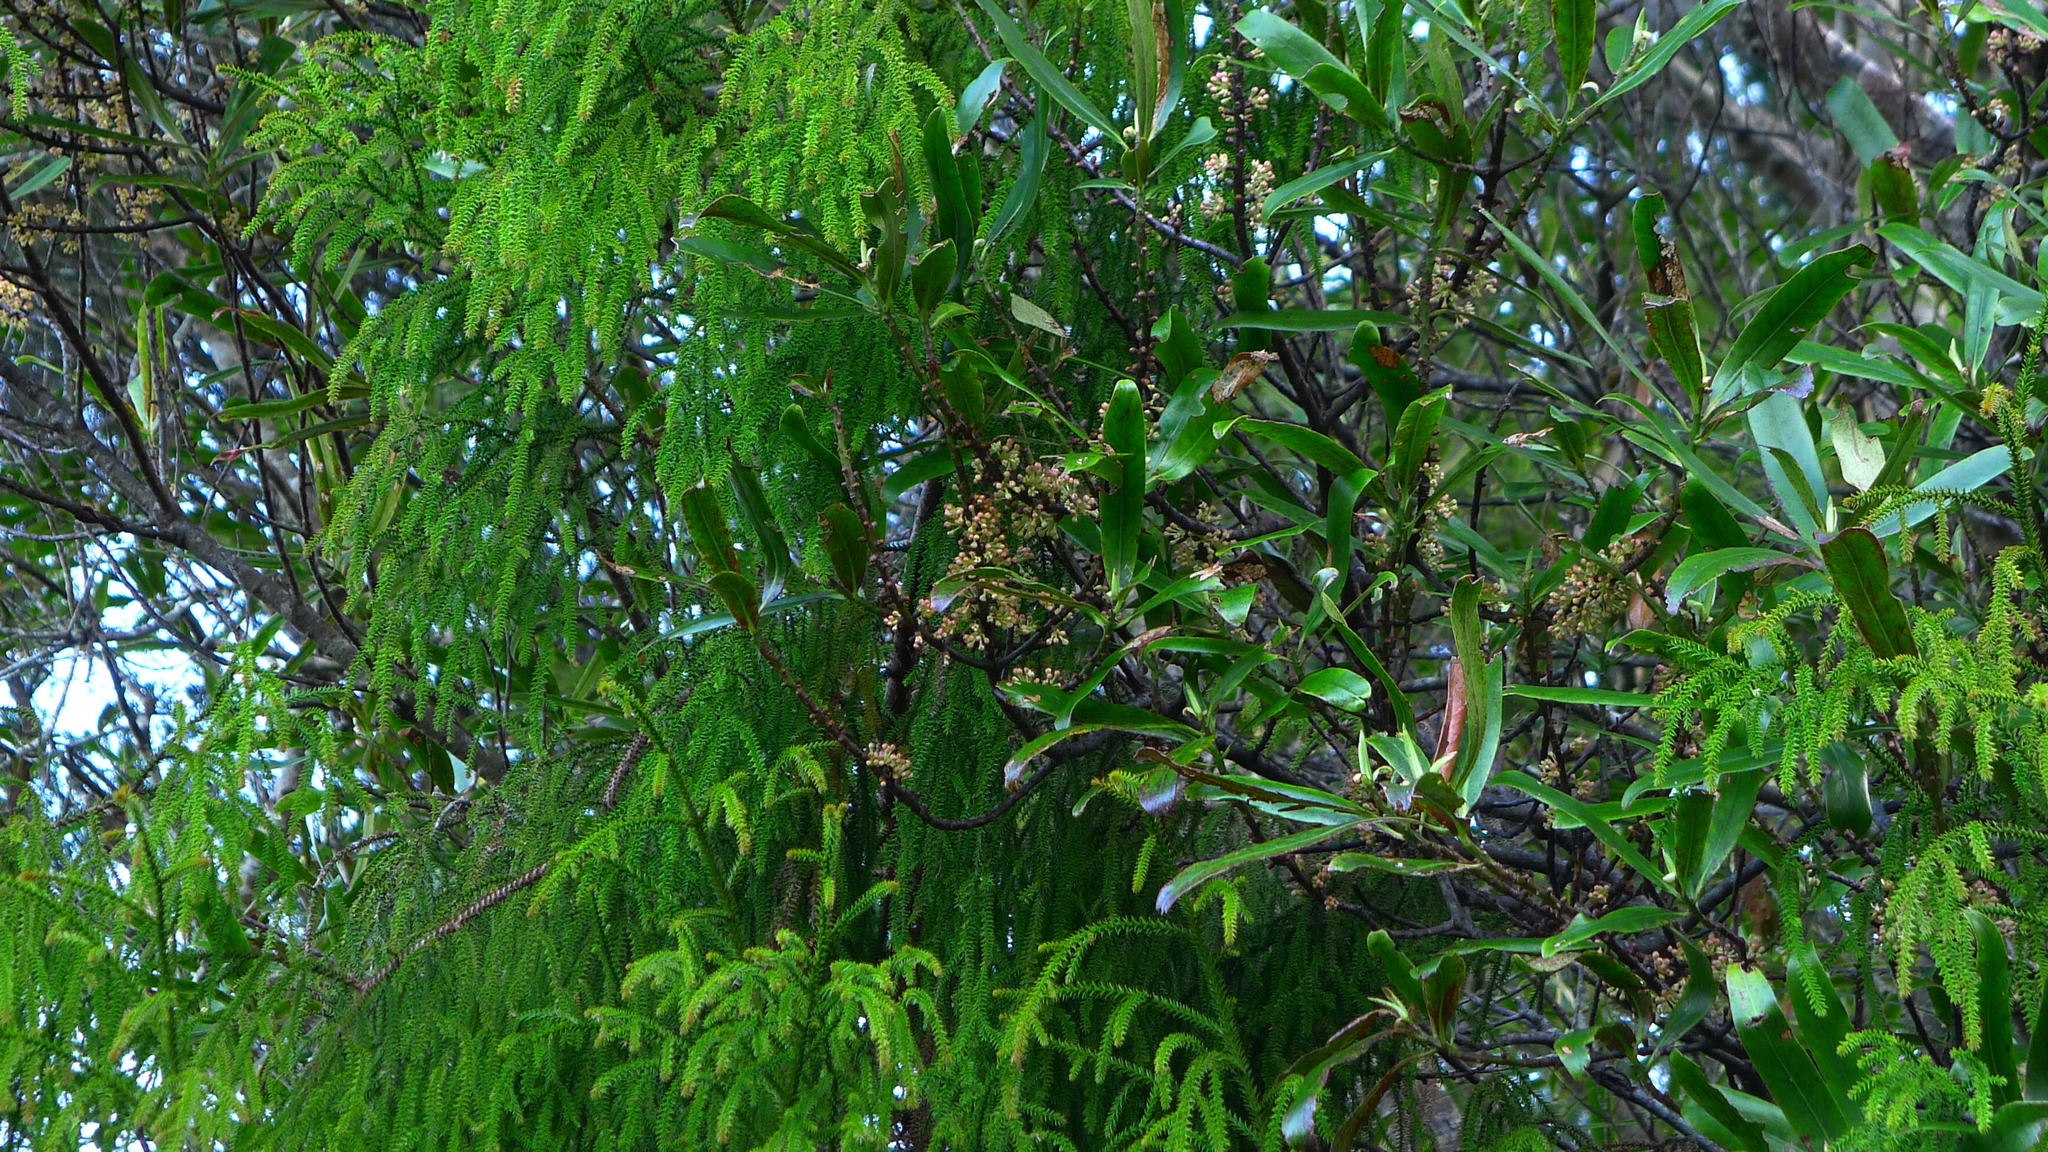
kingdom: Plantae
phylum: Tracheophyta
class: Magnoliopsida
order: Ericales
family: Primulaceae
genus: Myrsine
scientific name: Myrsine salicina
